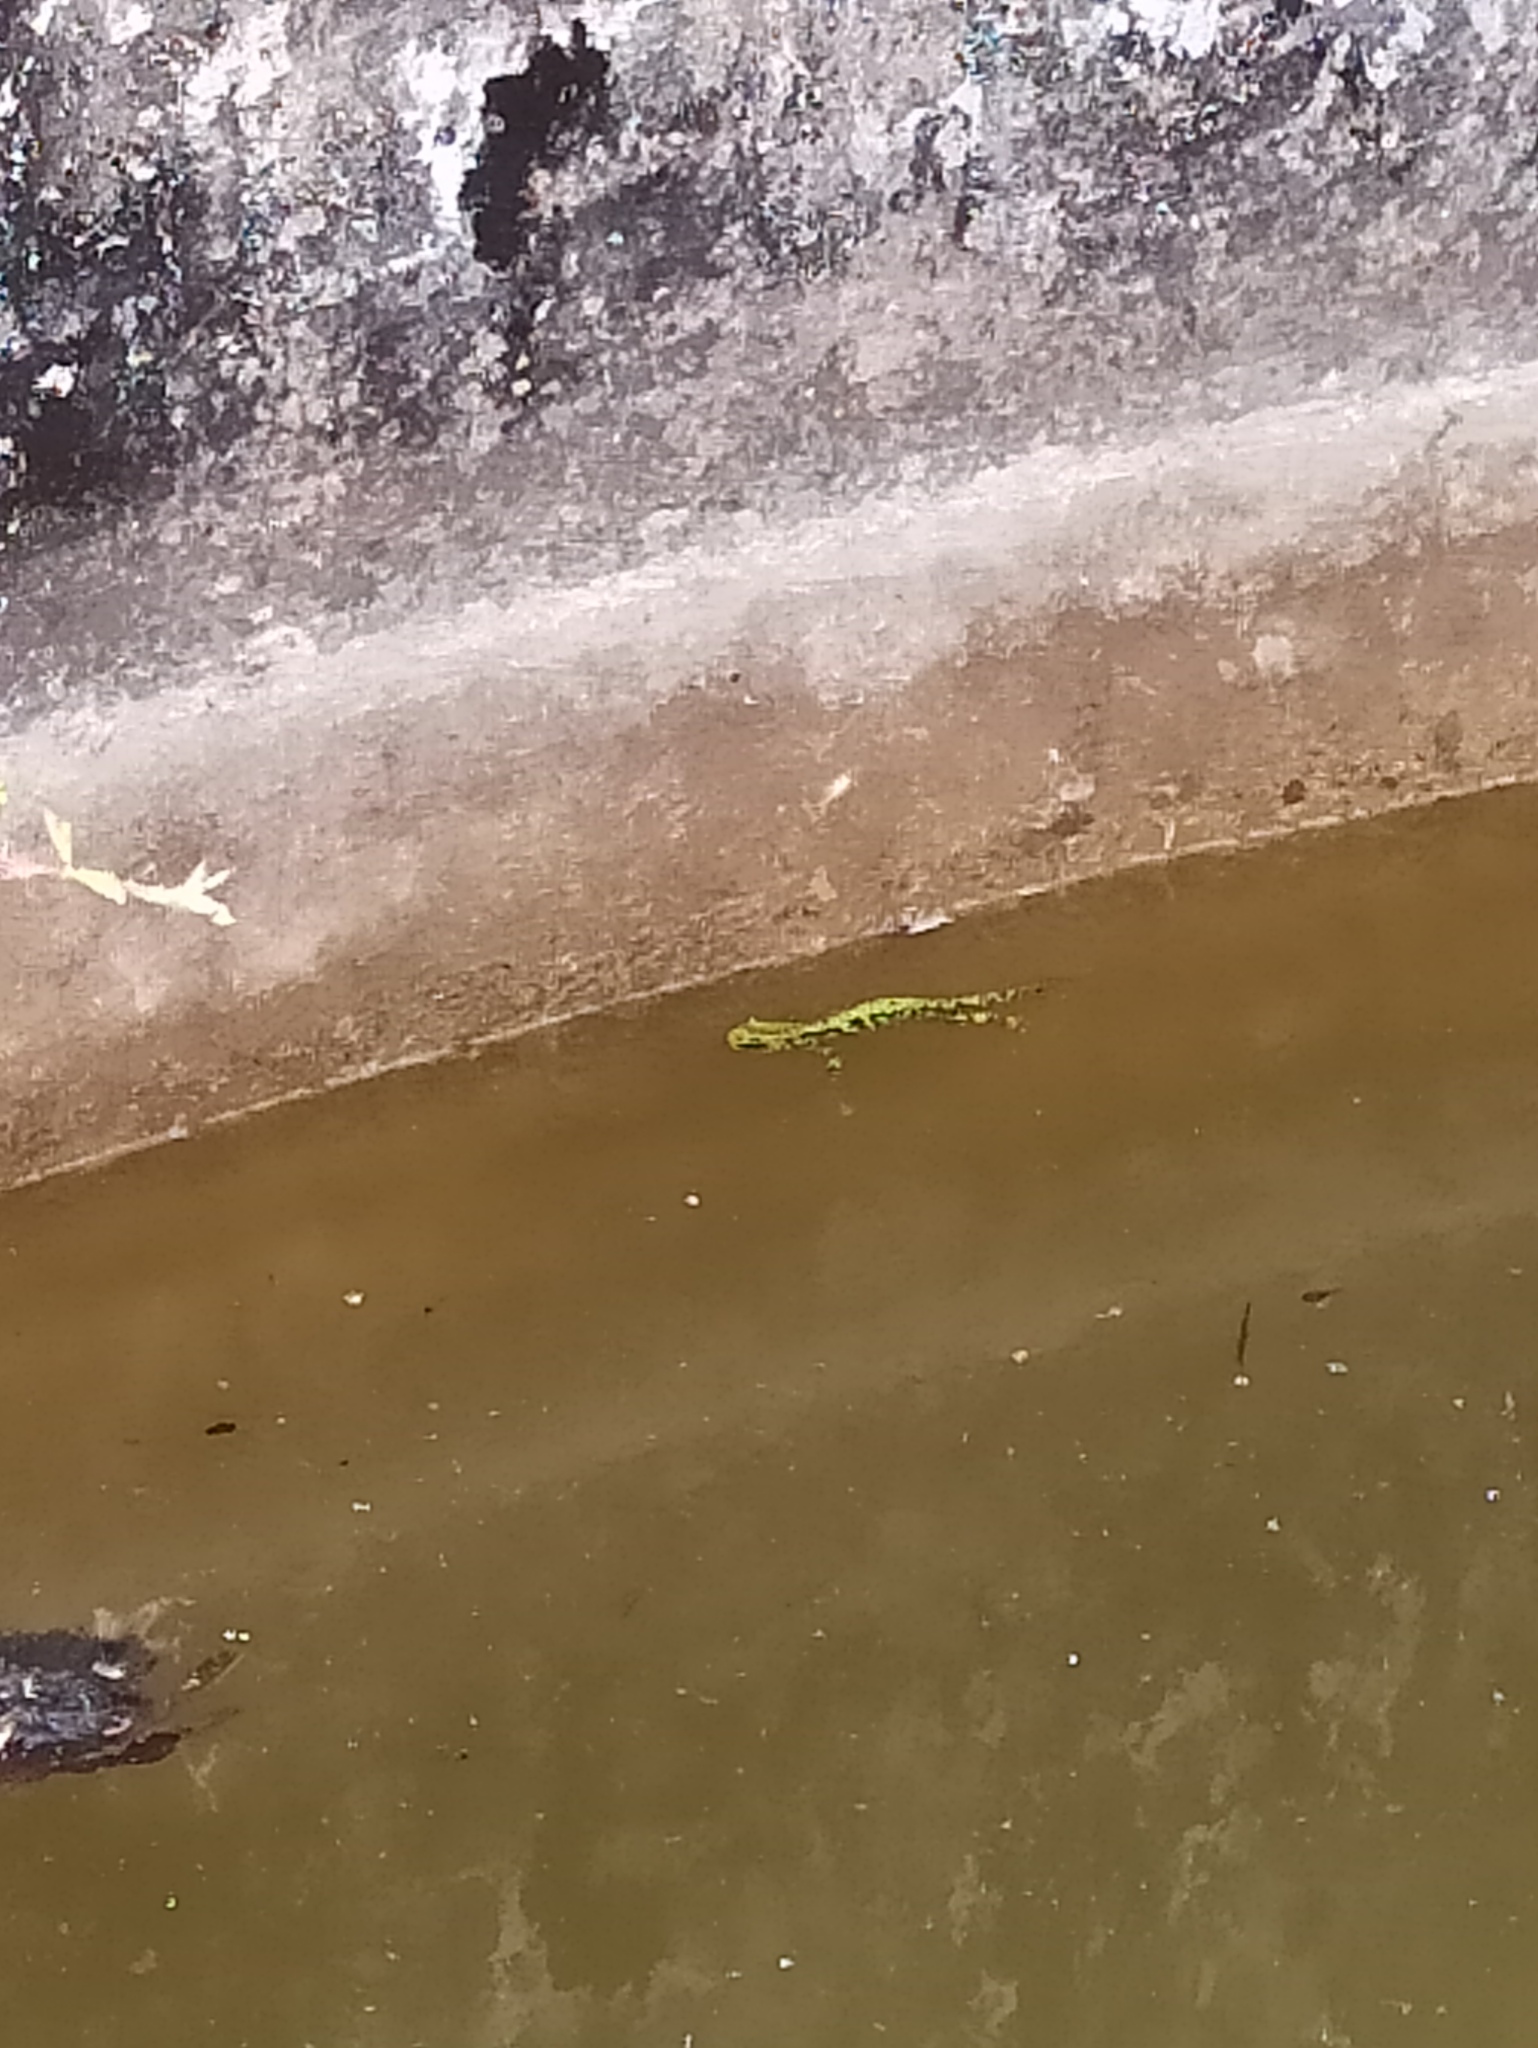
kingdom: Animalia
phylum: Chordata
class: Amphibia
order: Caudata
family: Salamandridae
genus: Triturus
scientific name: Triturus marmoratus
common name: Marbled newt
